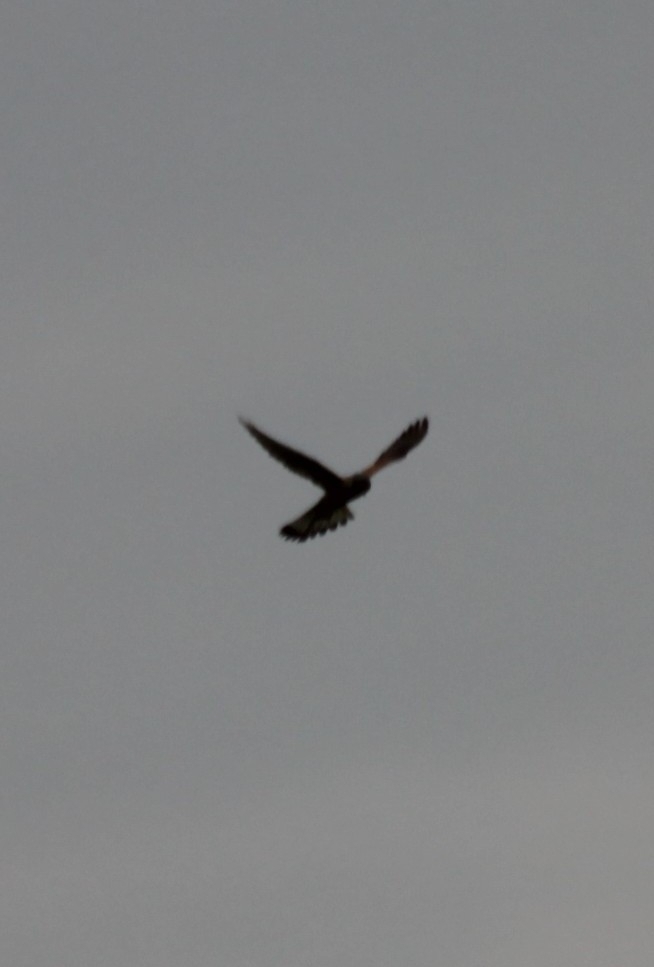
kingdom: Animalia
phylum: Chordata
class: Aves
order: Falconiformes
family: Falconidae
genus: Falco
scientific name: Falco tinnunculus
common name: Common kestrel
